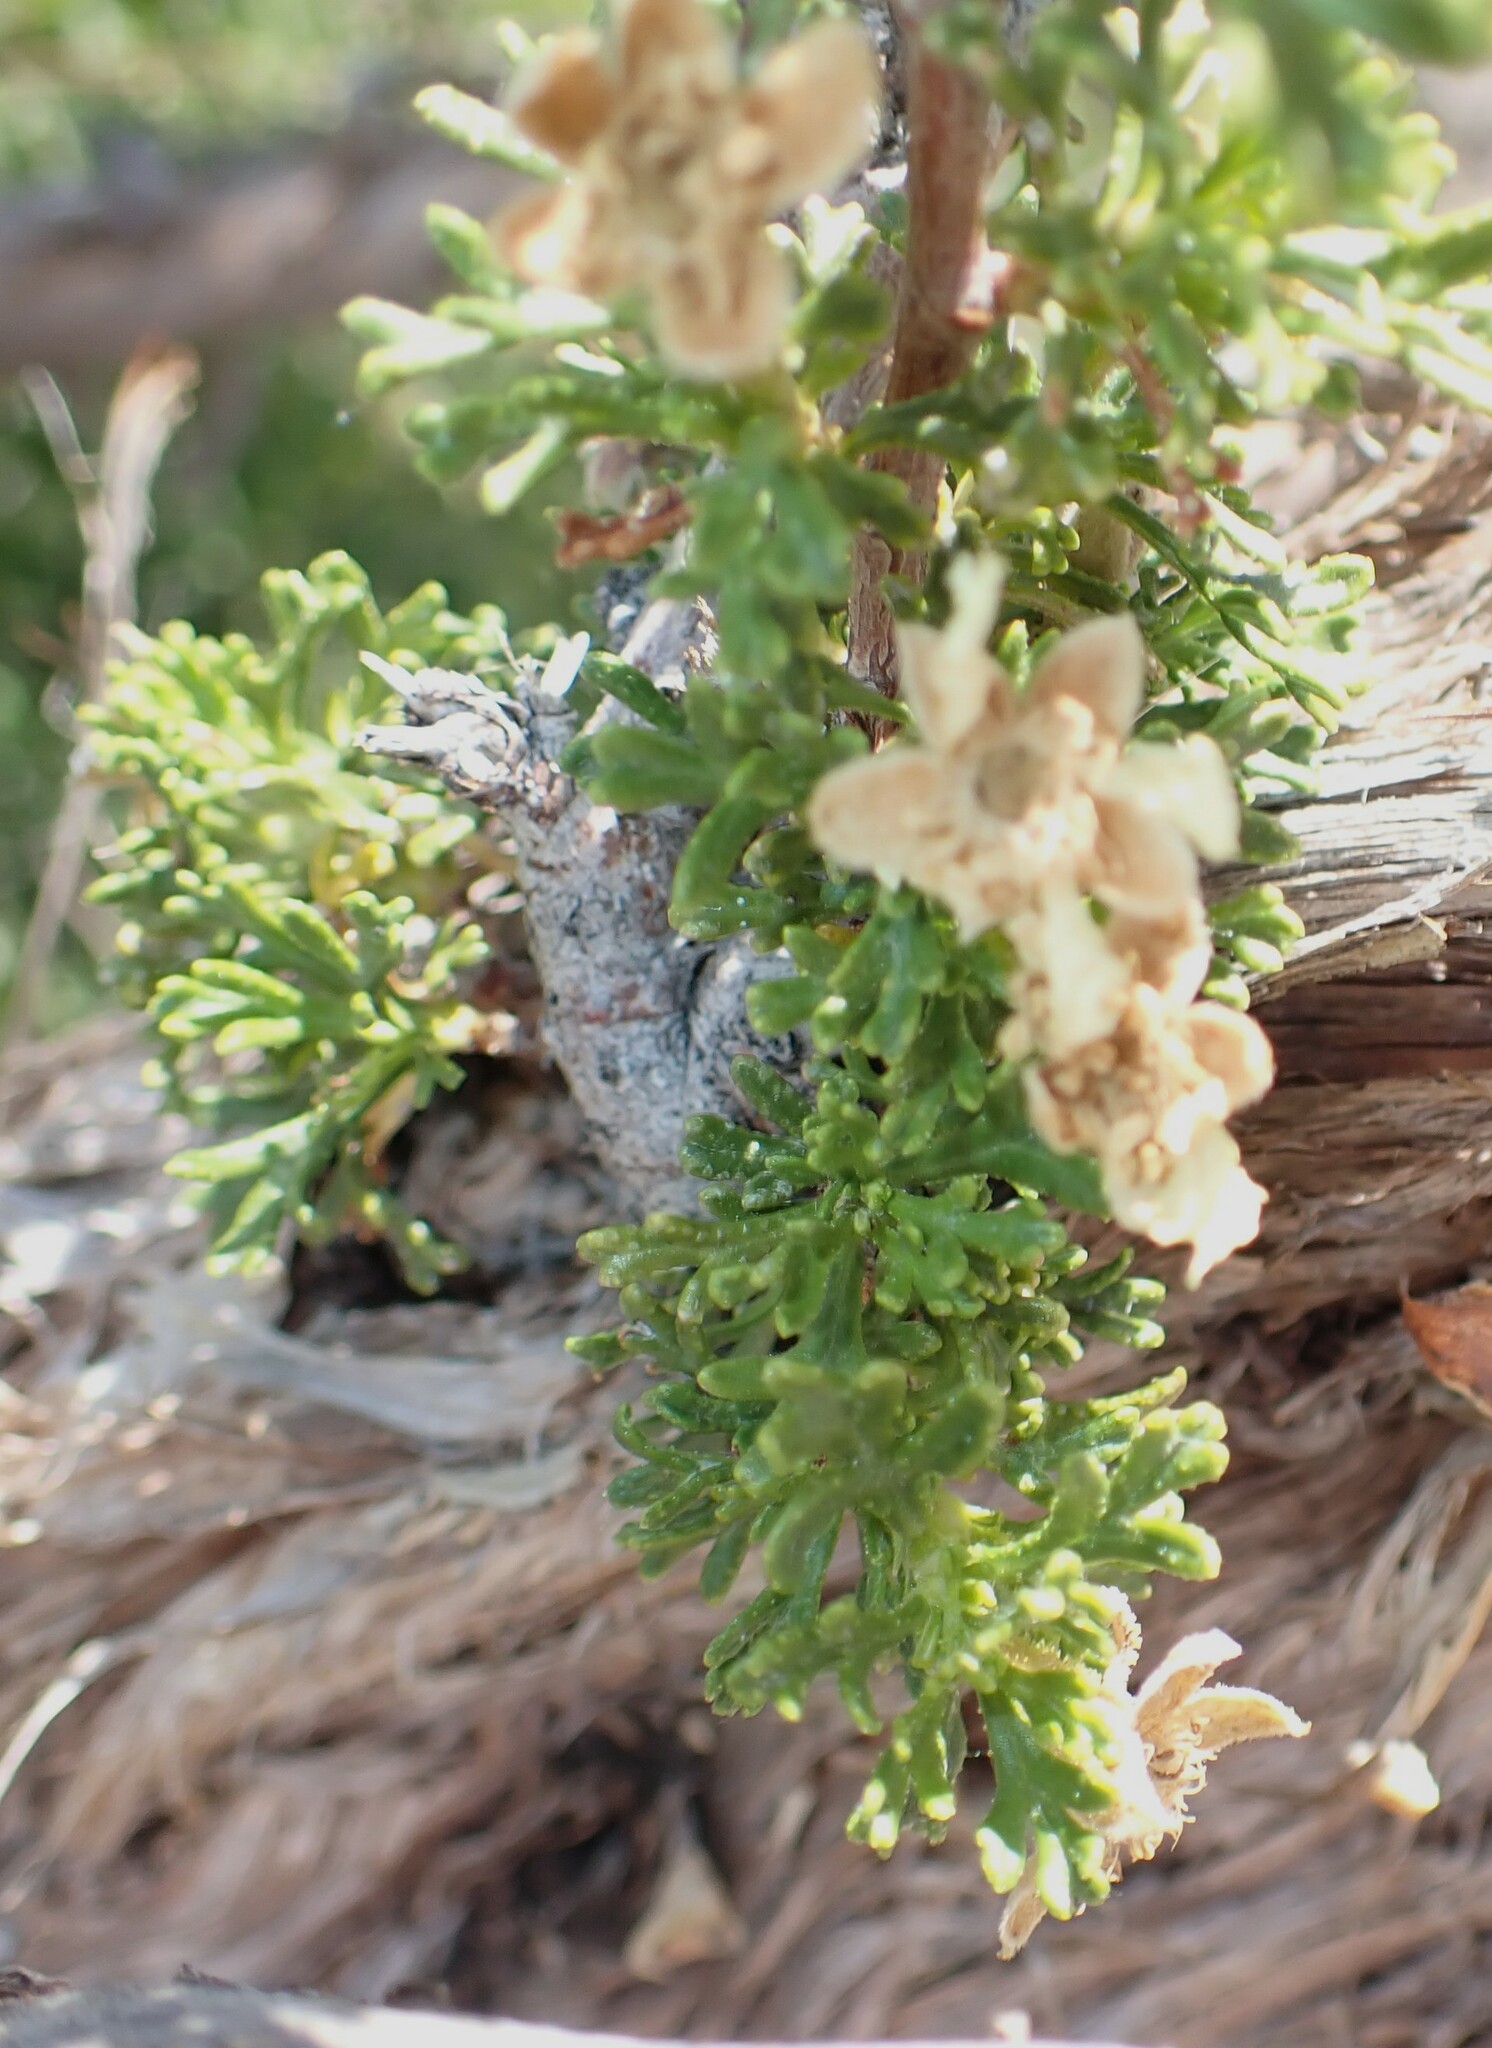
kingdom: Plantae
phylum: Tracheophyta
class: Magnoliopsida
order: Rosales
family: Rosaceae
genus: Purshia
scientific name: Purshia stansburiana
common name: Stansbury's cliffrose
